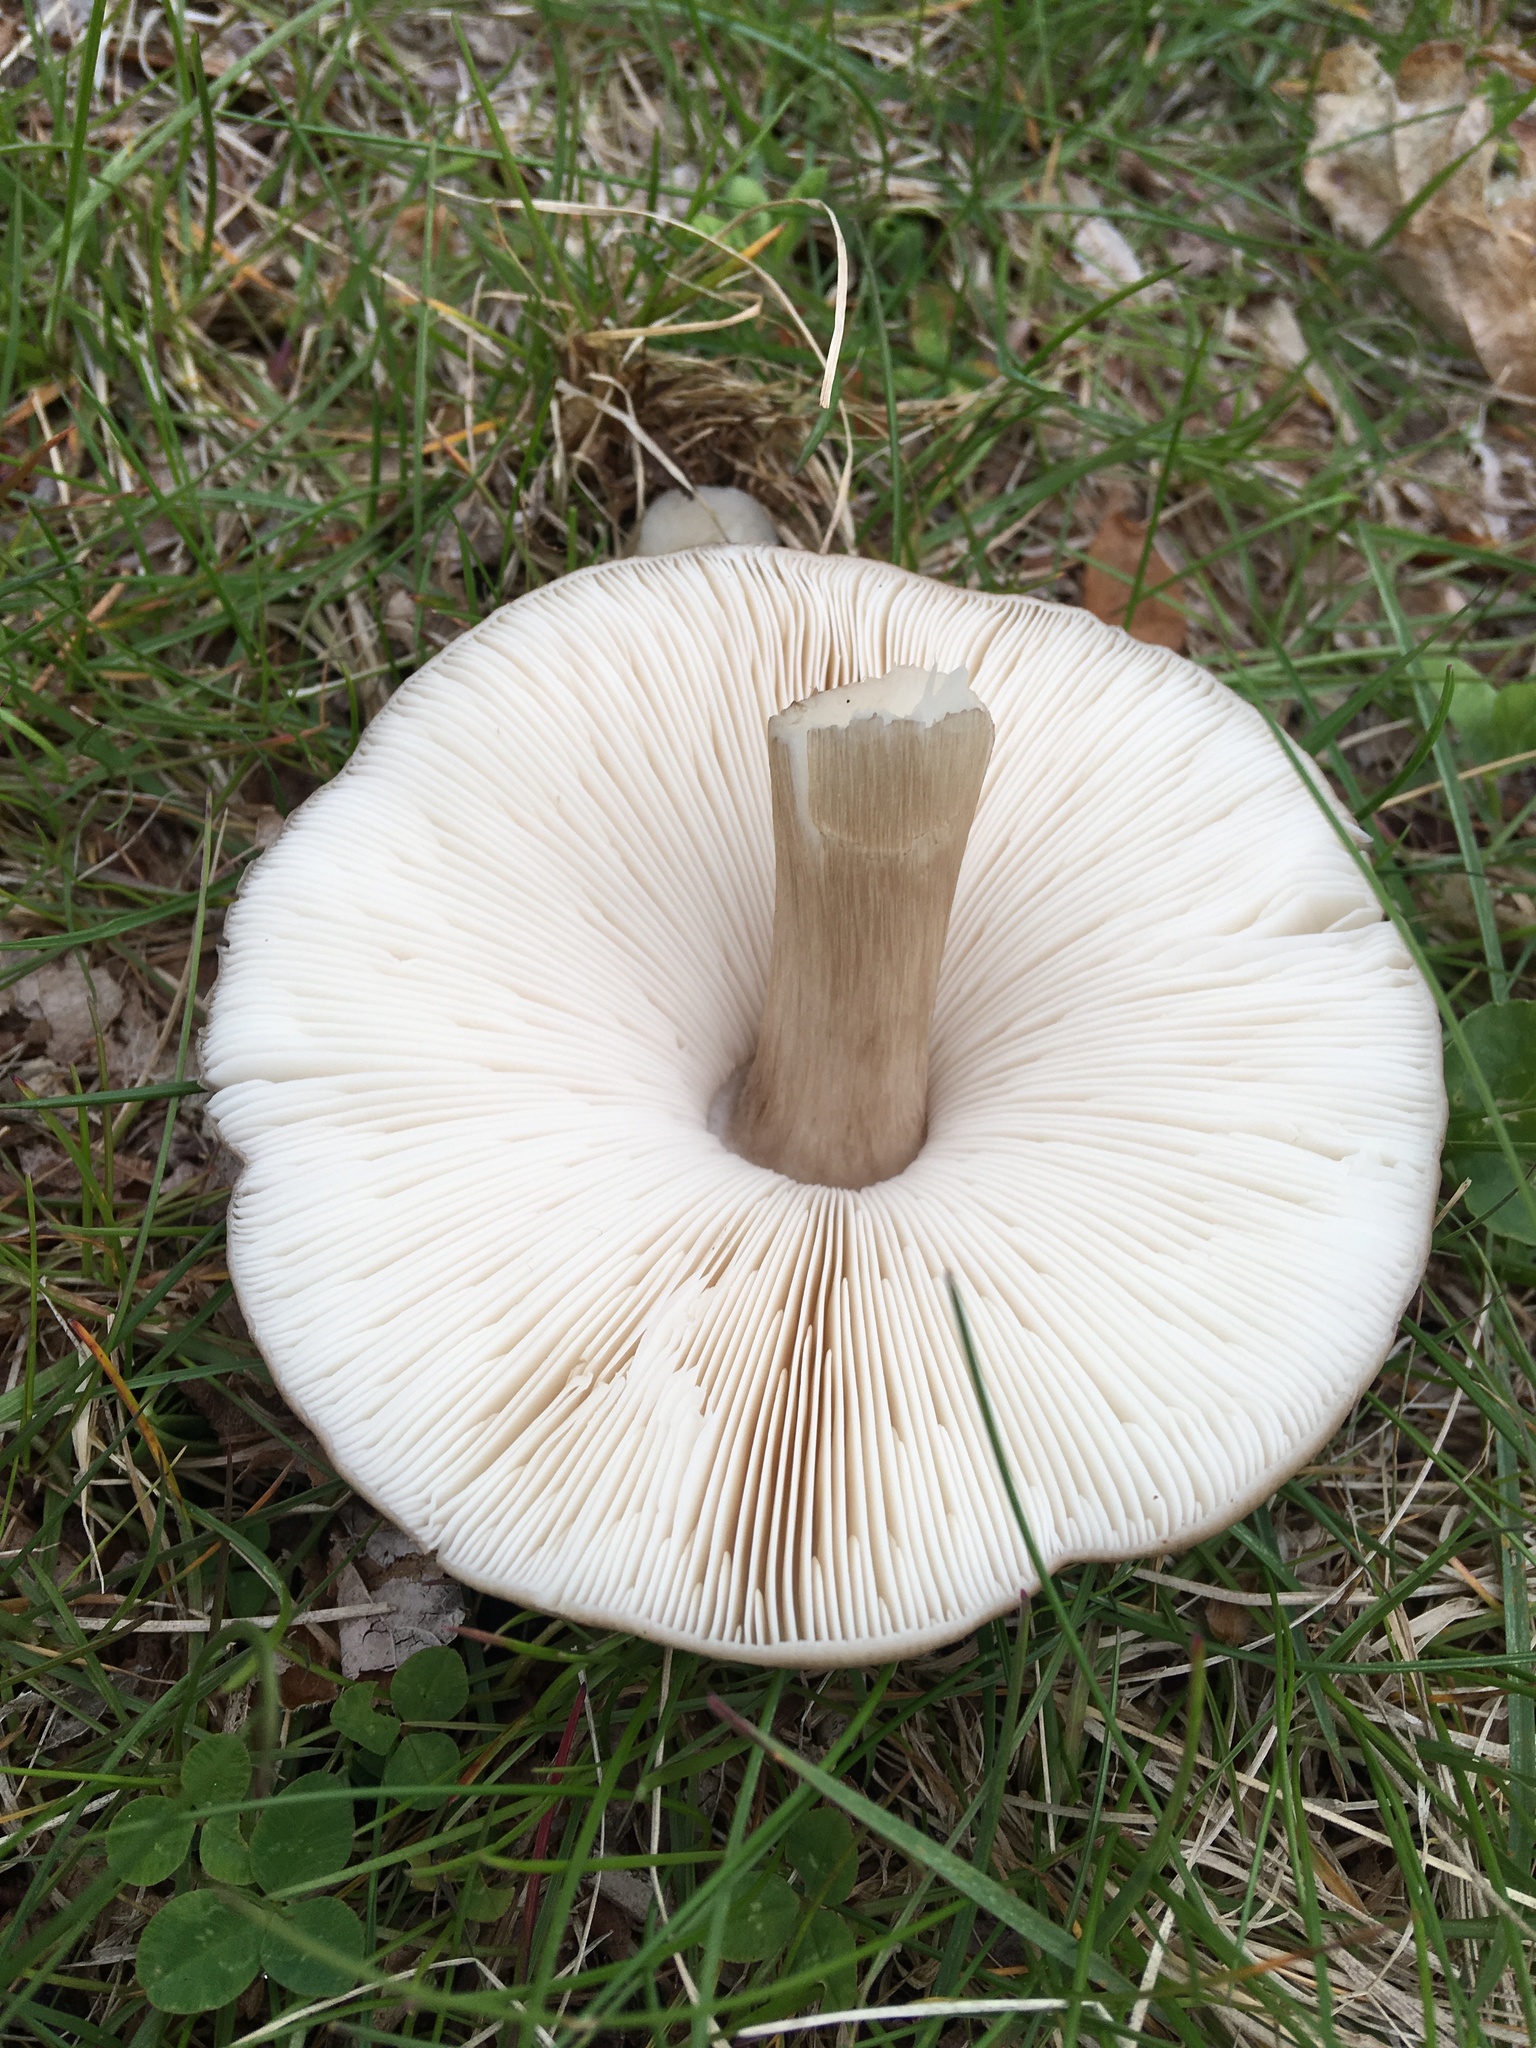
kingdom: Fungi
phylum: Basidiomycota
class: Agaricomycetes
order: Agaricales
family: Pluteaceae
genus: Pluteus
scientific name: Pluteus cervinus
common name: Deer shield
